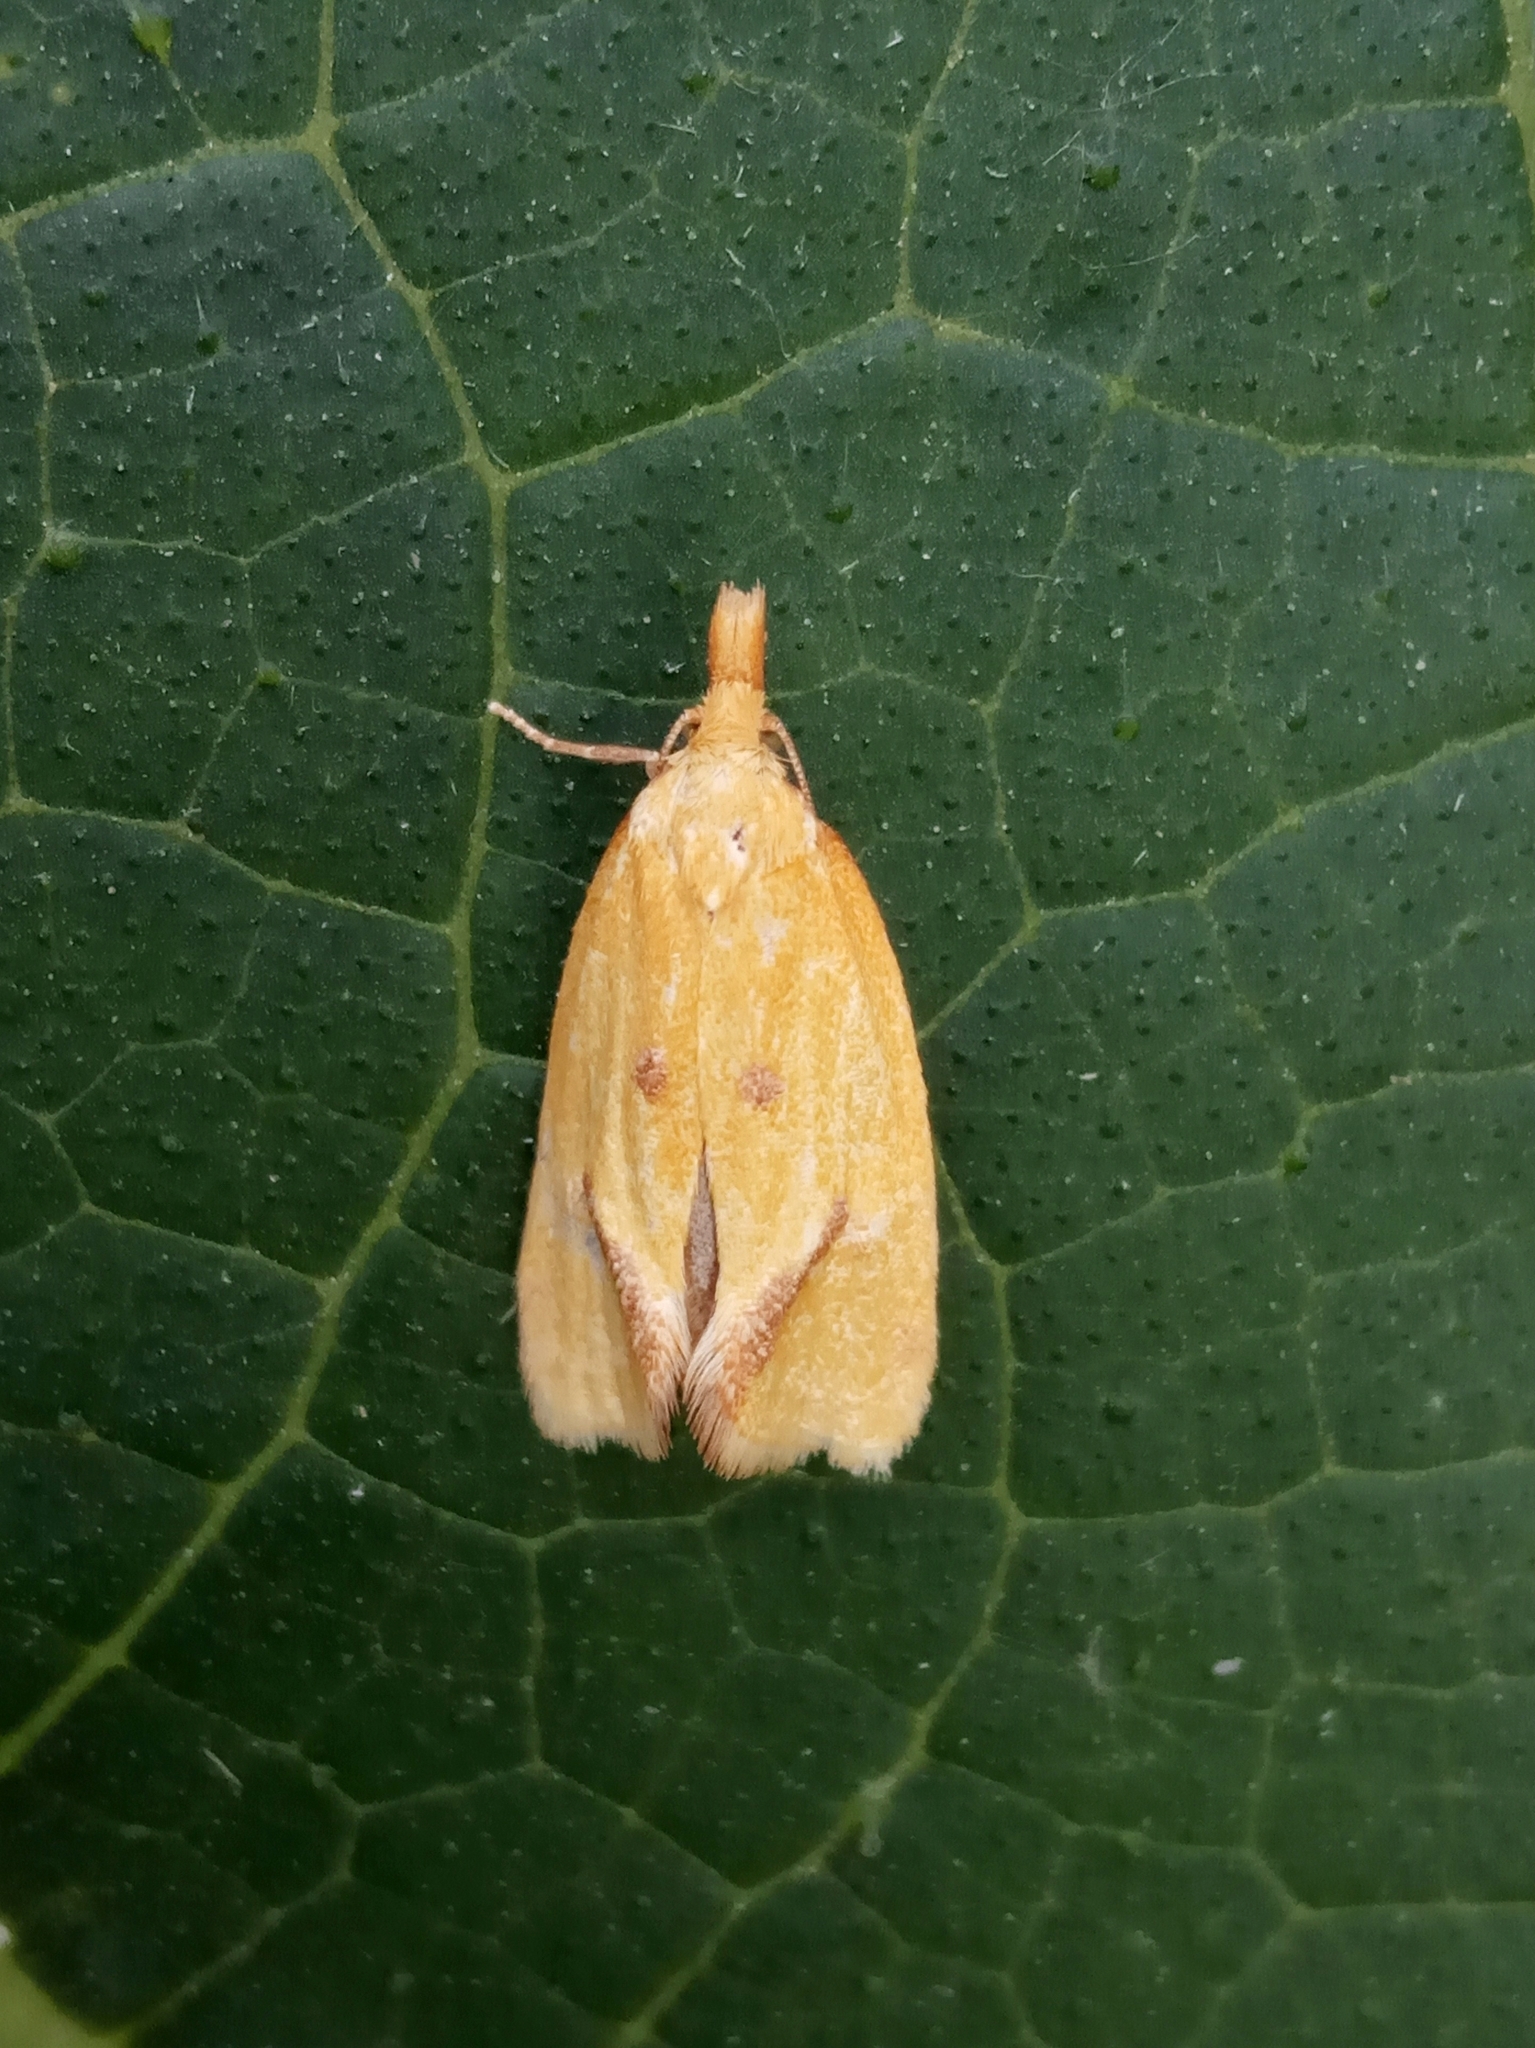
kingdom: Animalia
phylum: Arthropoda
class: Insecta
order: Lepidoptera
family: Tortricidae
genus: Agapeta
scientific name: Agapeta hamana
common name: Common yellow conch
